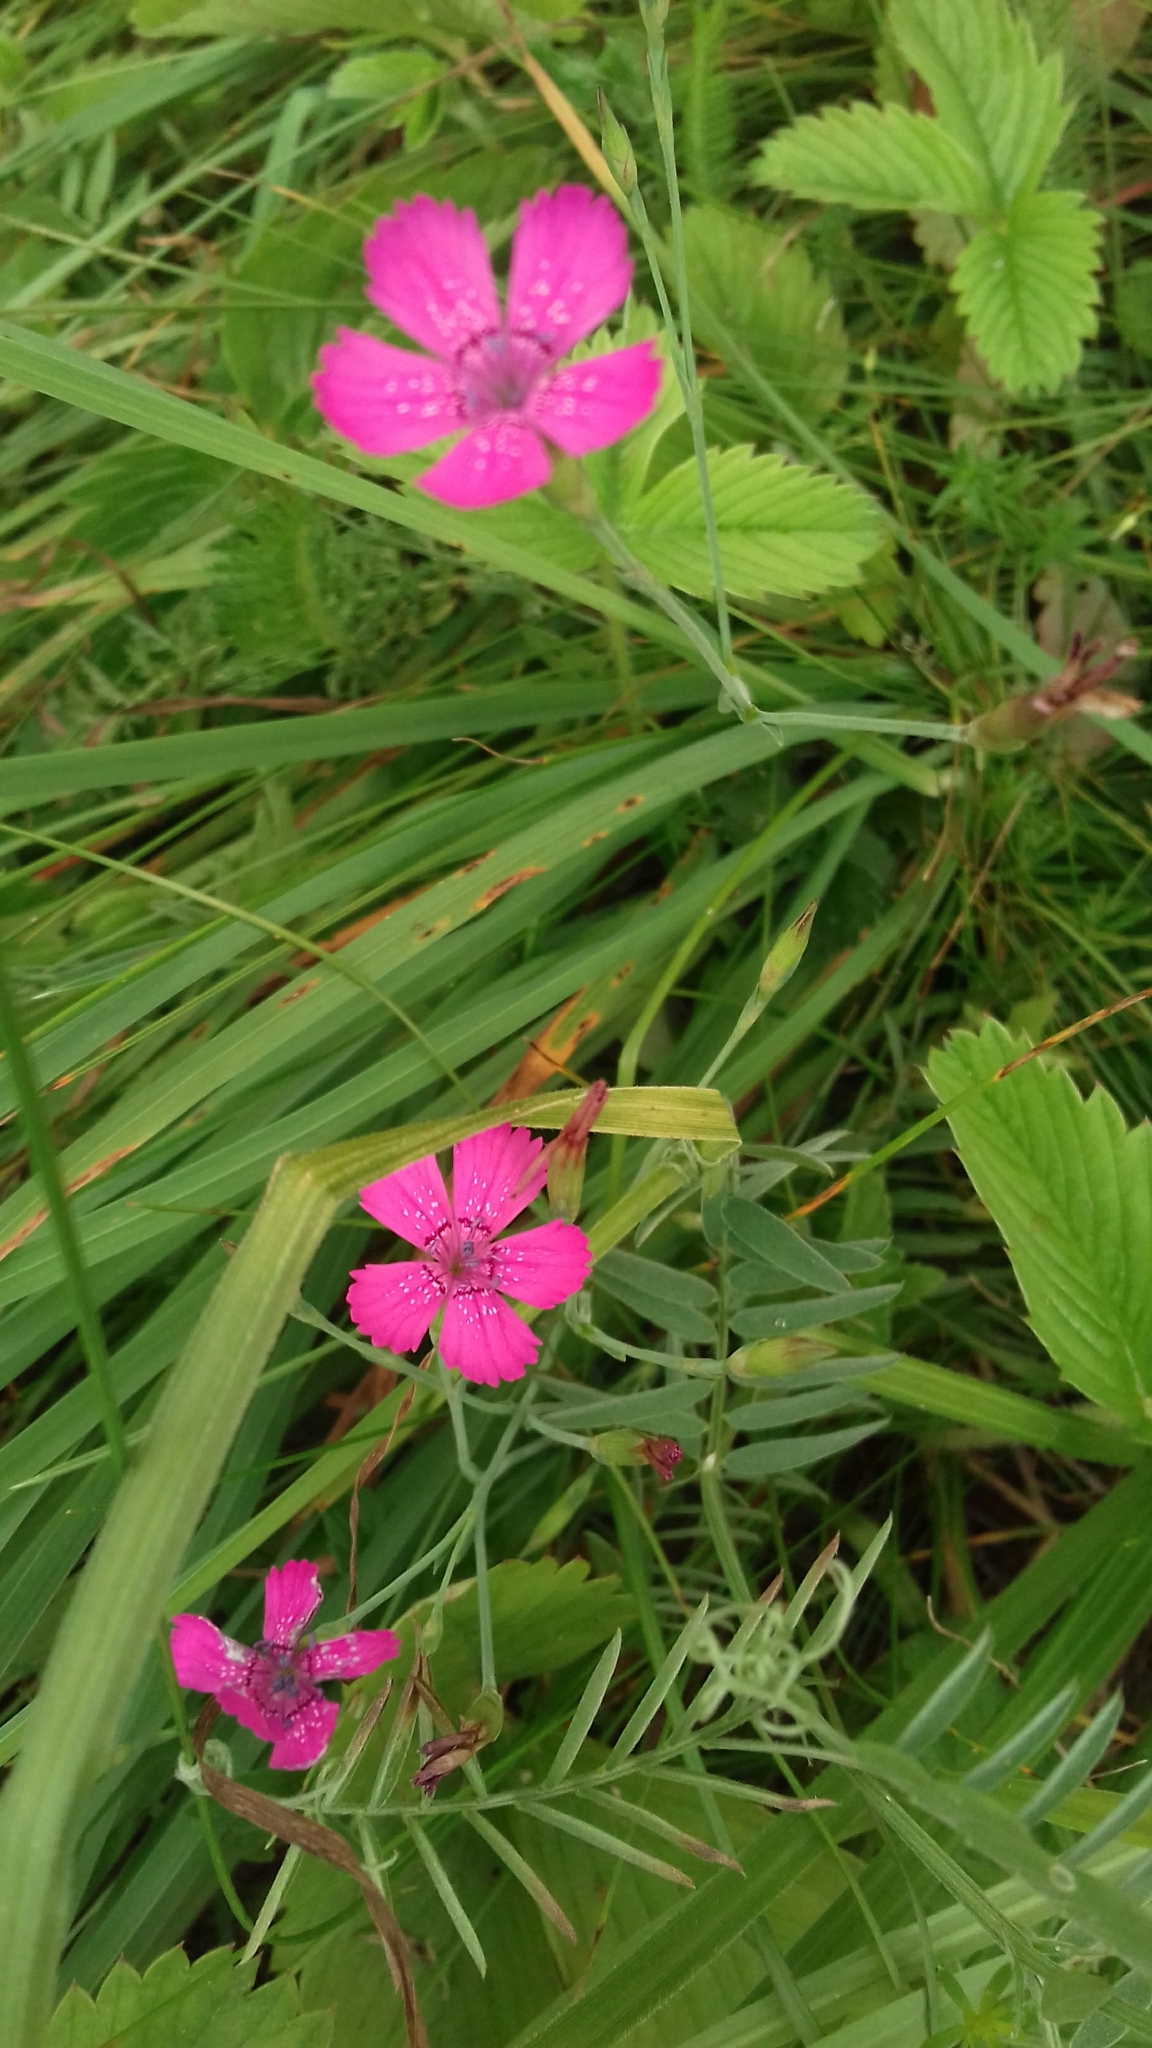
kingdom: Plantae
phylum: Tracheophyta
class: Magnoliopsida
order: Caryophyllales
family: Caryophyllaceae
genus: Dianthus
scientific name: Dianthus deltoides
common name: Maiden pink
